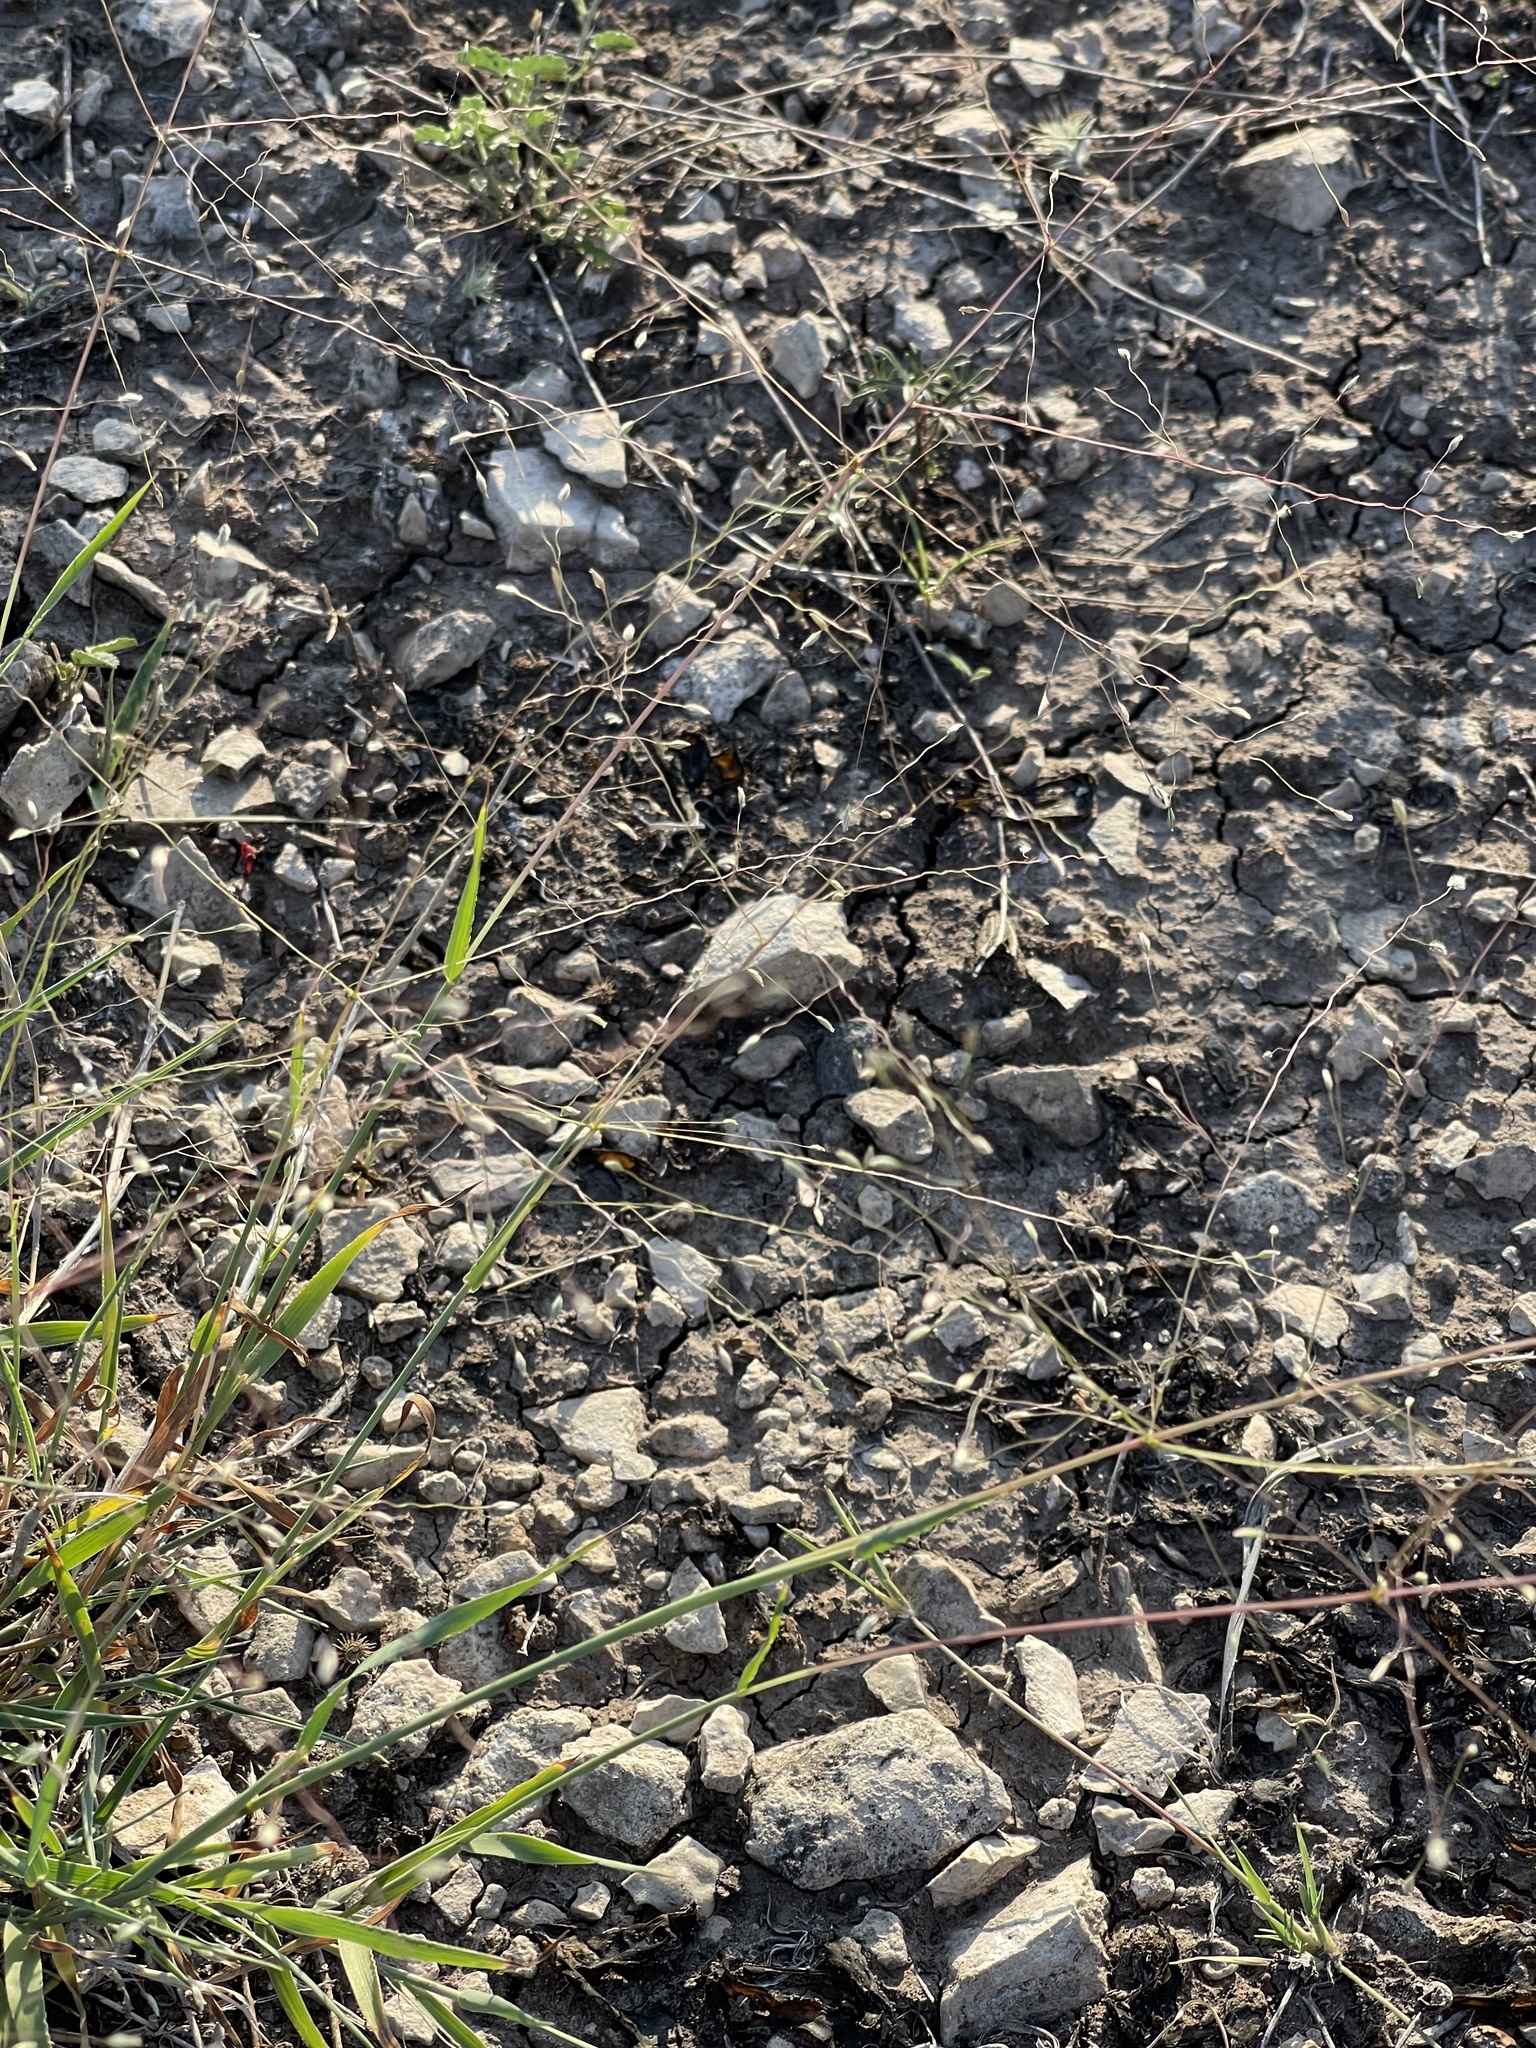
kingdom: Plantae
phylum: Tracheophyta
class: Liliopsida
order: Poales
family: Poaceae
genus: Digitaria
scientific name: Digitaria pubiflora
